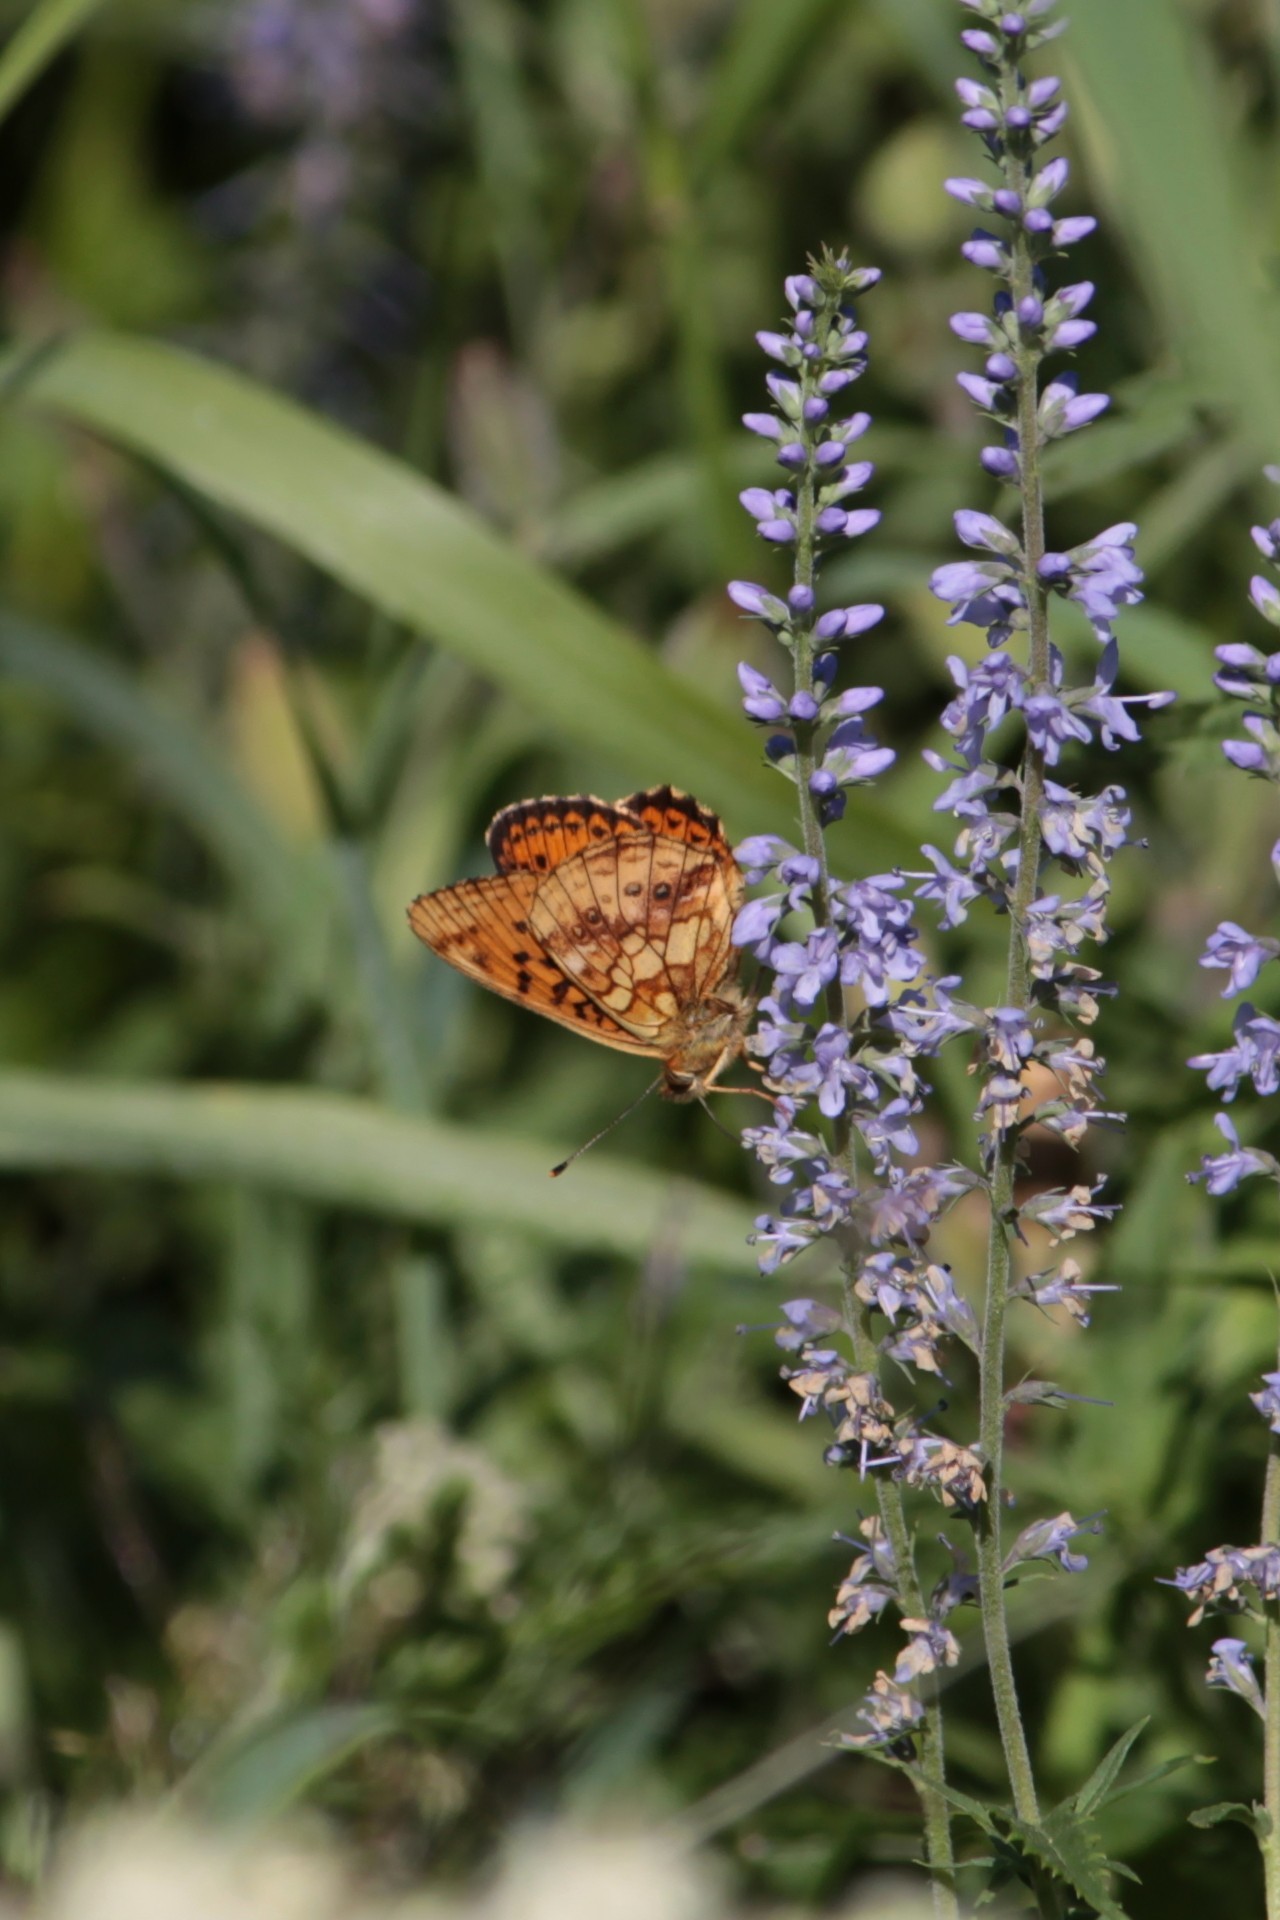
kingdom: Animalia
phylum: Arthropoda
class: Insecta
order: Lepidoptera
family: Nymphalidae
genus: Brenthis
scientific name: Brenthis ino
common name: Lesser marbled fritillary
